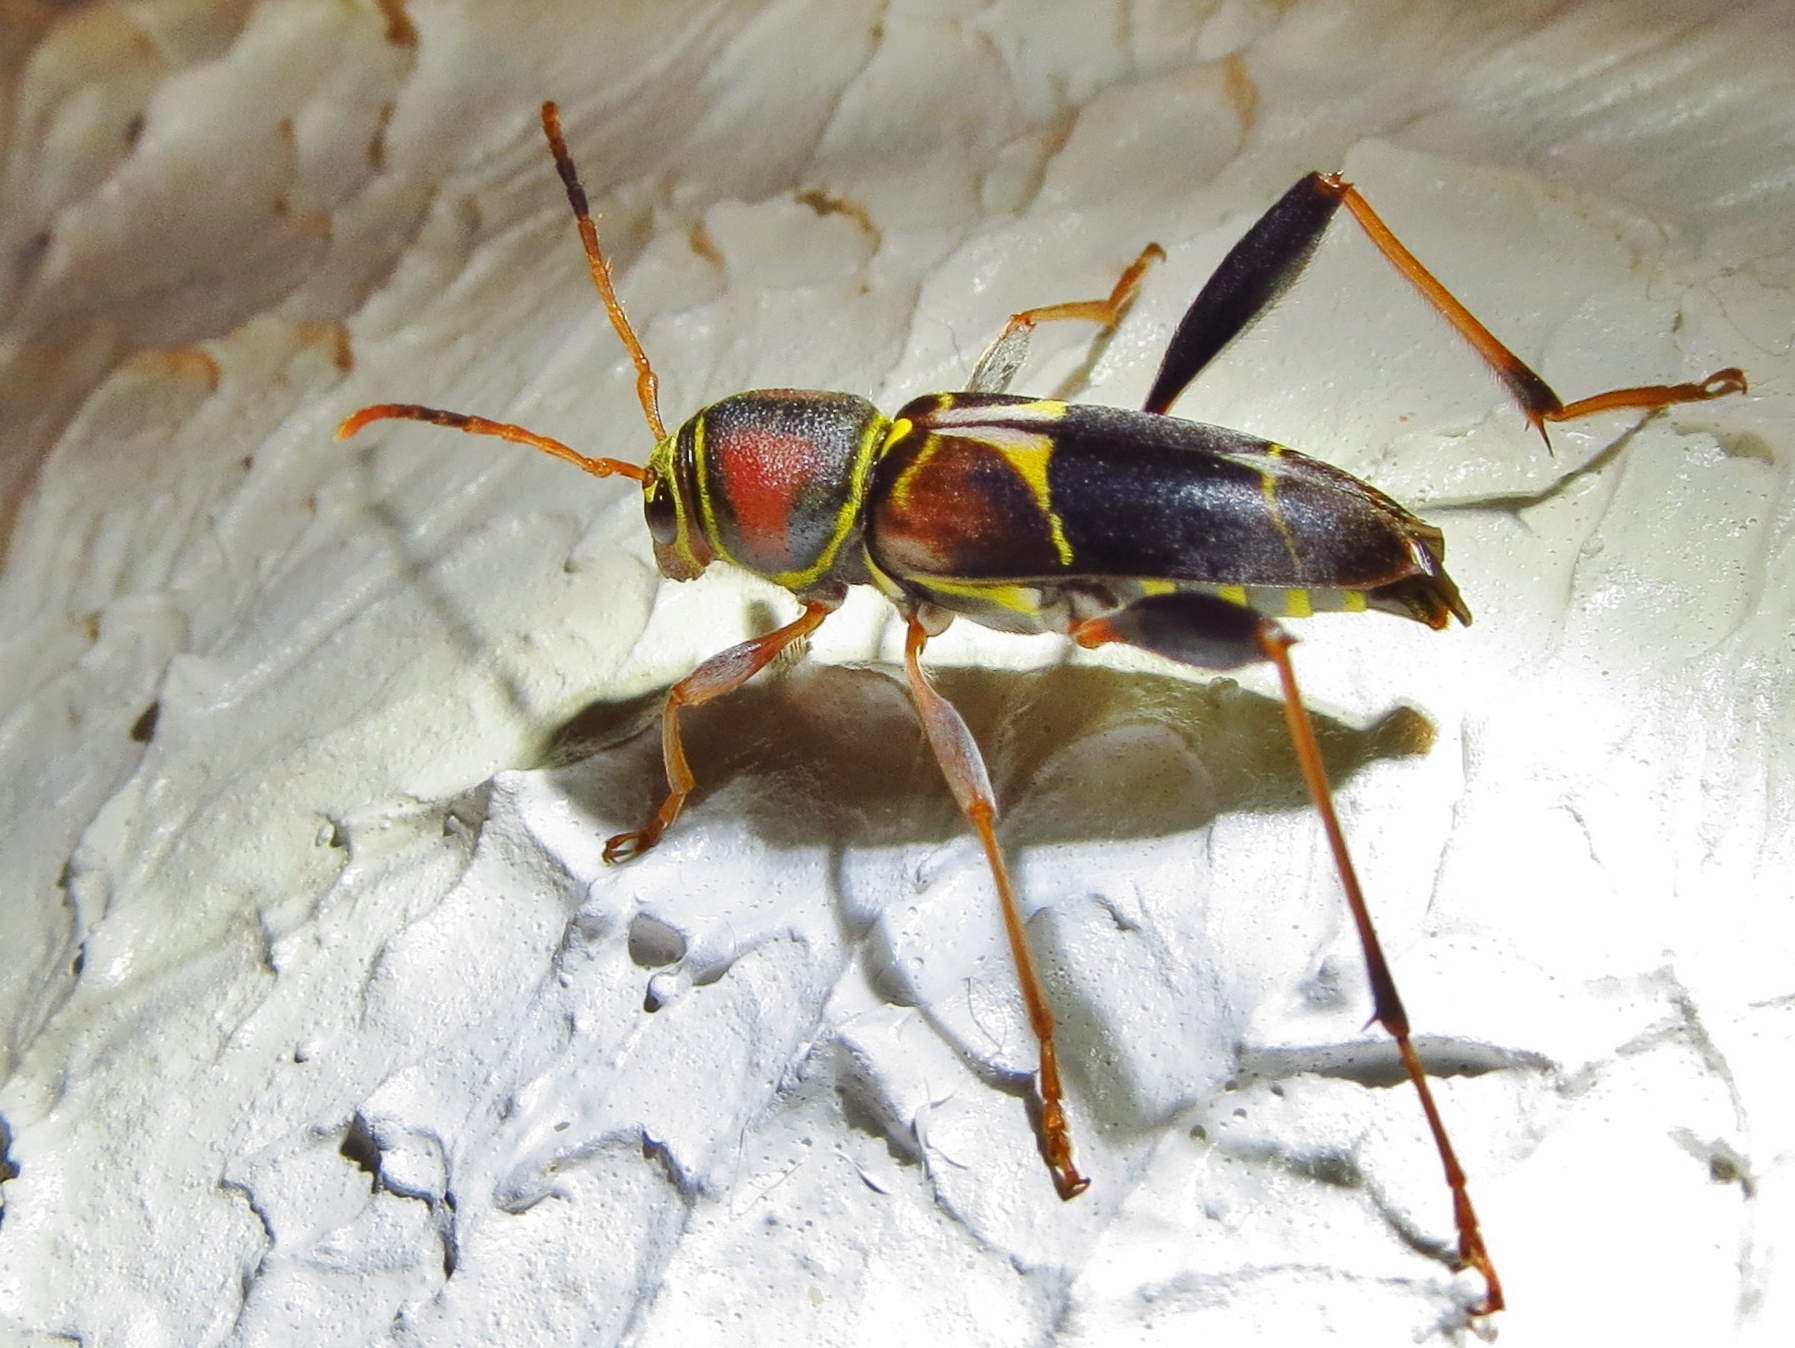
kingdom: Animalia
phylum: Arthropoda
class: Insecta
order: Coleoptera
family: Cerambycidae
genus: Neoclytus
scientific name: Neoclytus mucronatus
